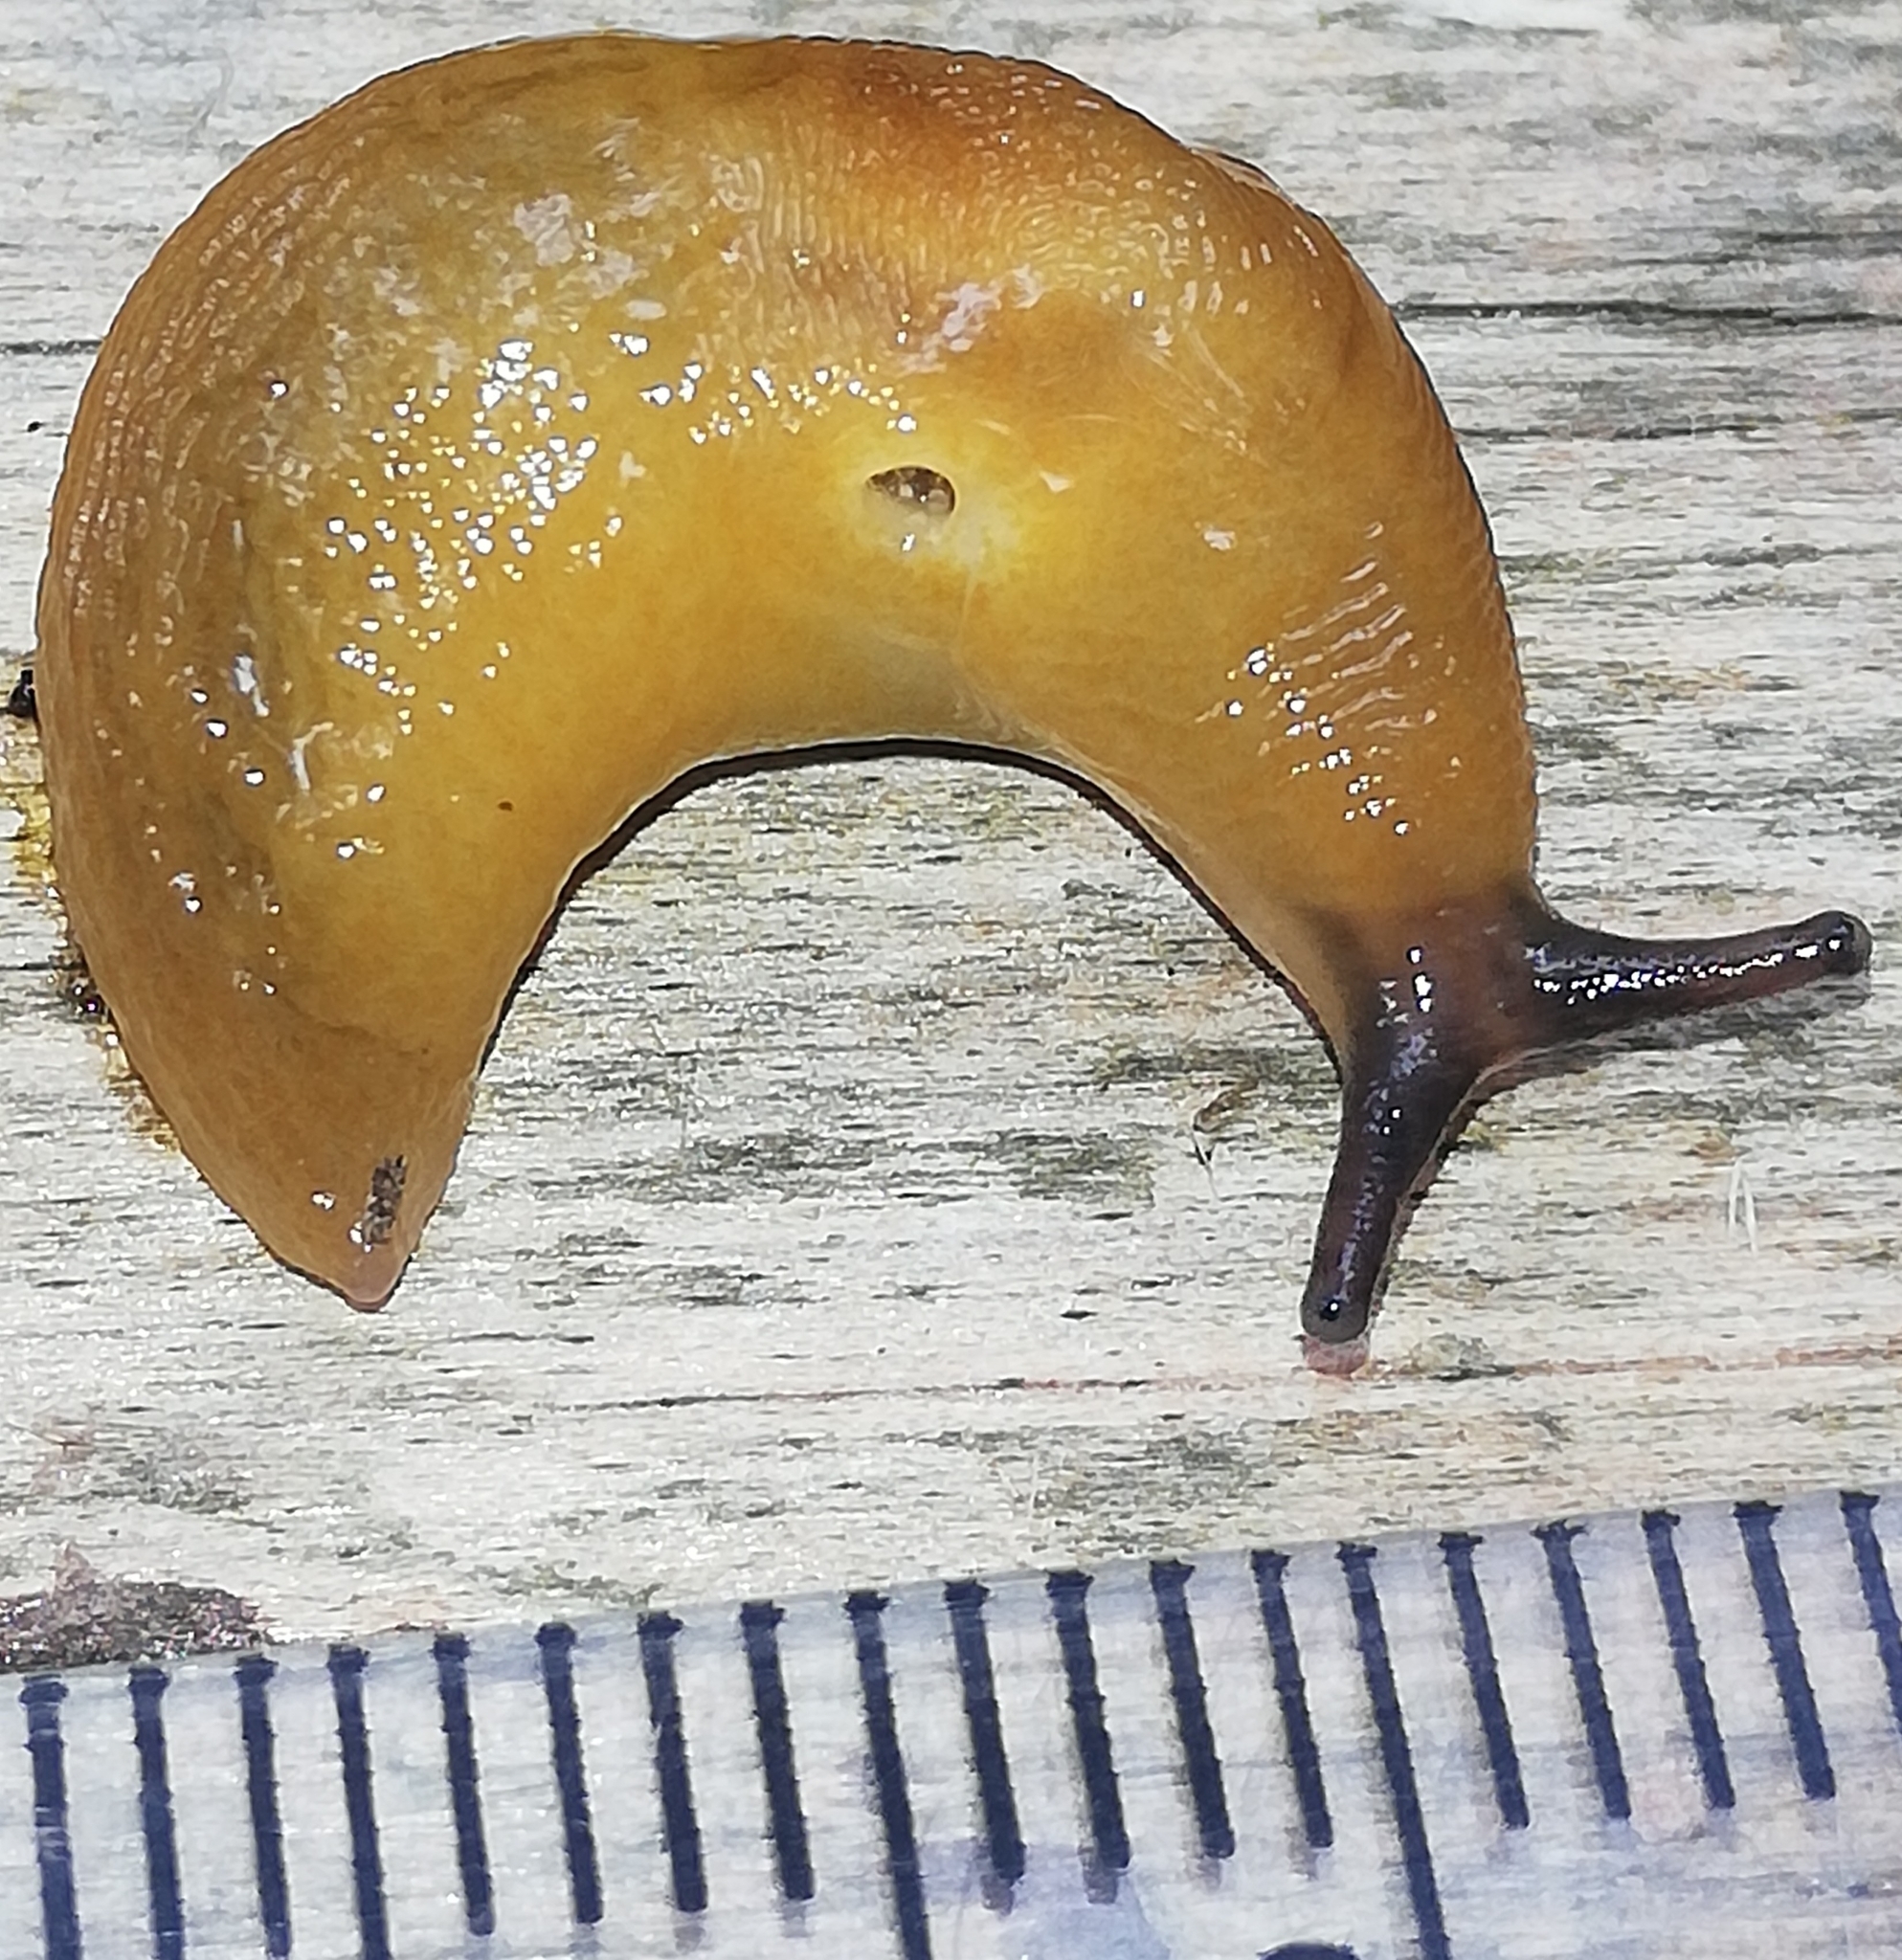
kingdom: Animalia
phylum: Mollusca
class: Gastropoda
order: Stylommatophora
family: Limacidae
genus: Malacolimax
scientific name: Malacolimax tenellus
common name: Lemon slug
